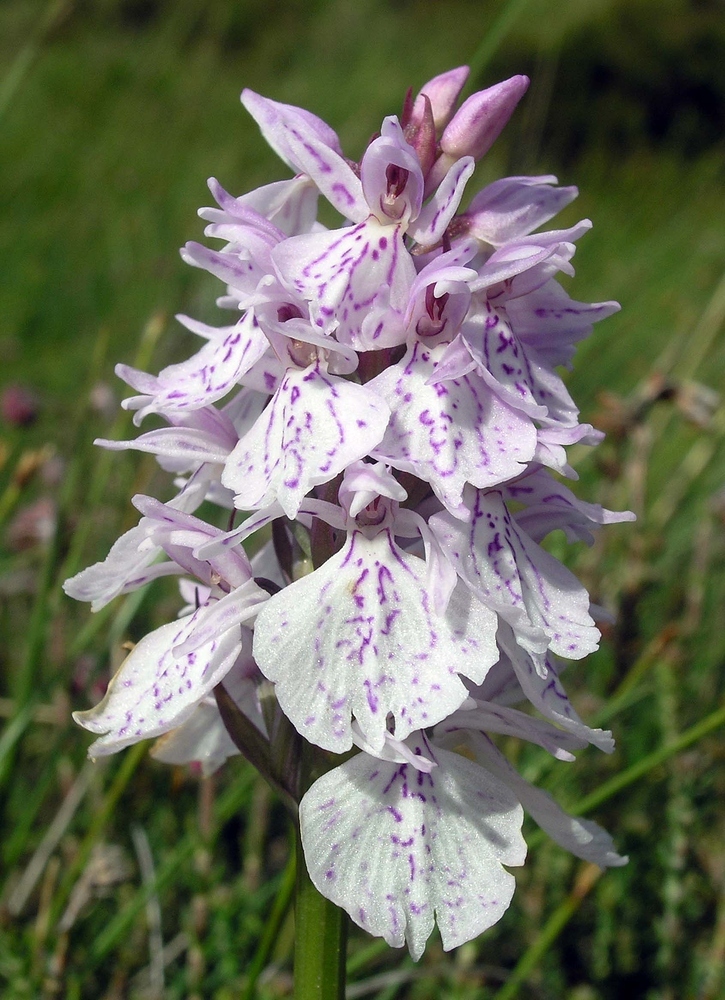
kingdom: Plantae
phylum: Tracheophyta
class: Liliopsida
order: Asparagales
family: Orchidaceae
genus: Dactylorhiza
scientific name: Dactylorhiza maculata
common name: Heath spotted-orchid
